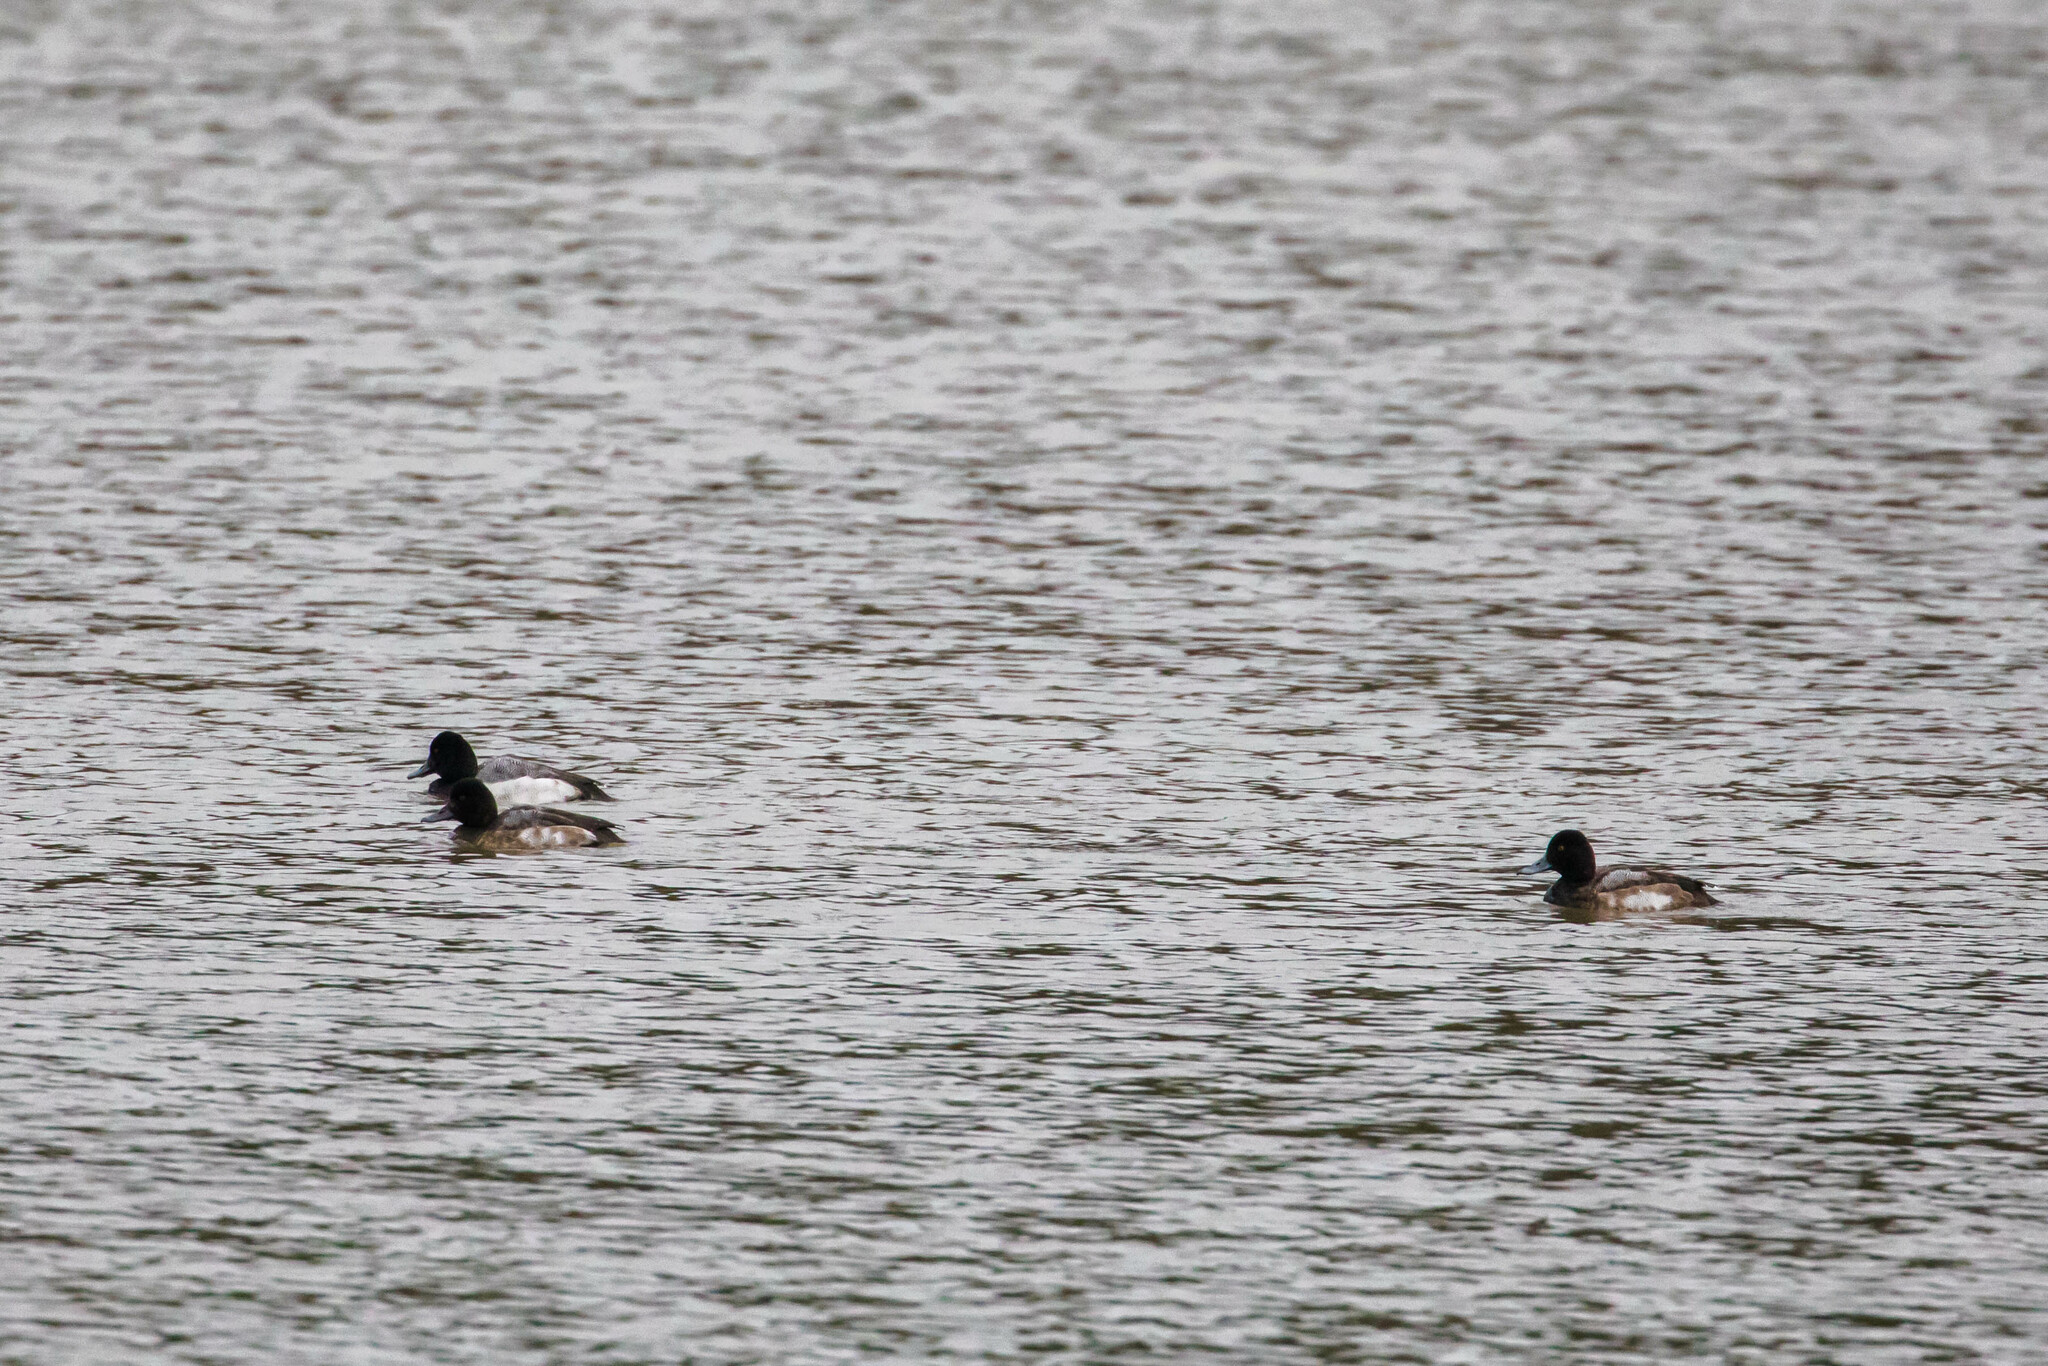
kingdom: Animalia
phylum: Chordata
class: Aves
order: Anseriformes
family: Anatidae
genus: Aythya
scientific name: Aythya affinis
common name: Lesser scaup
